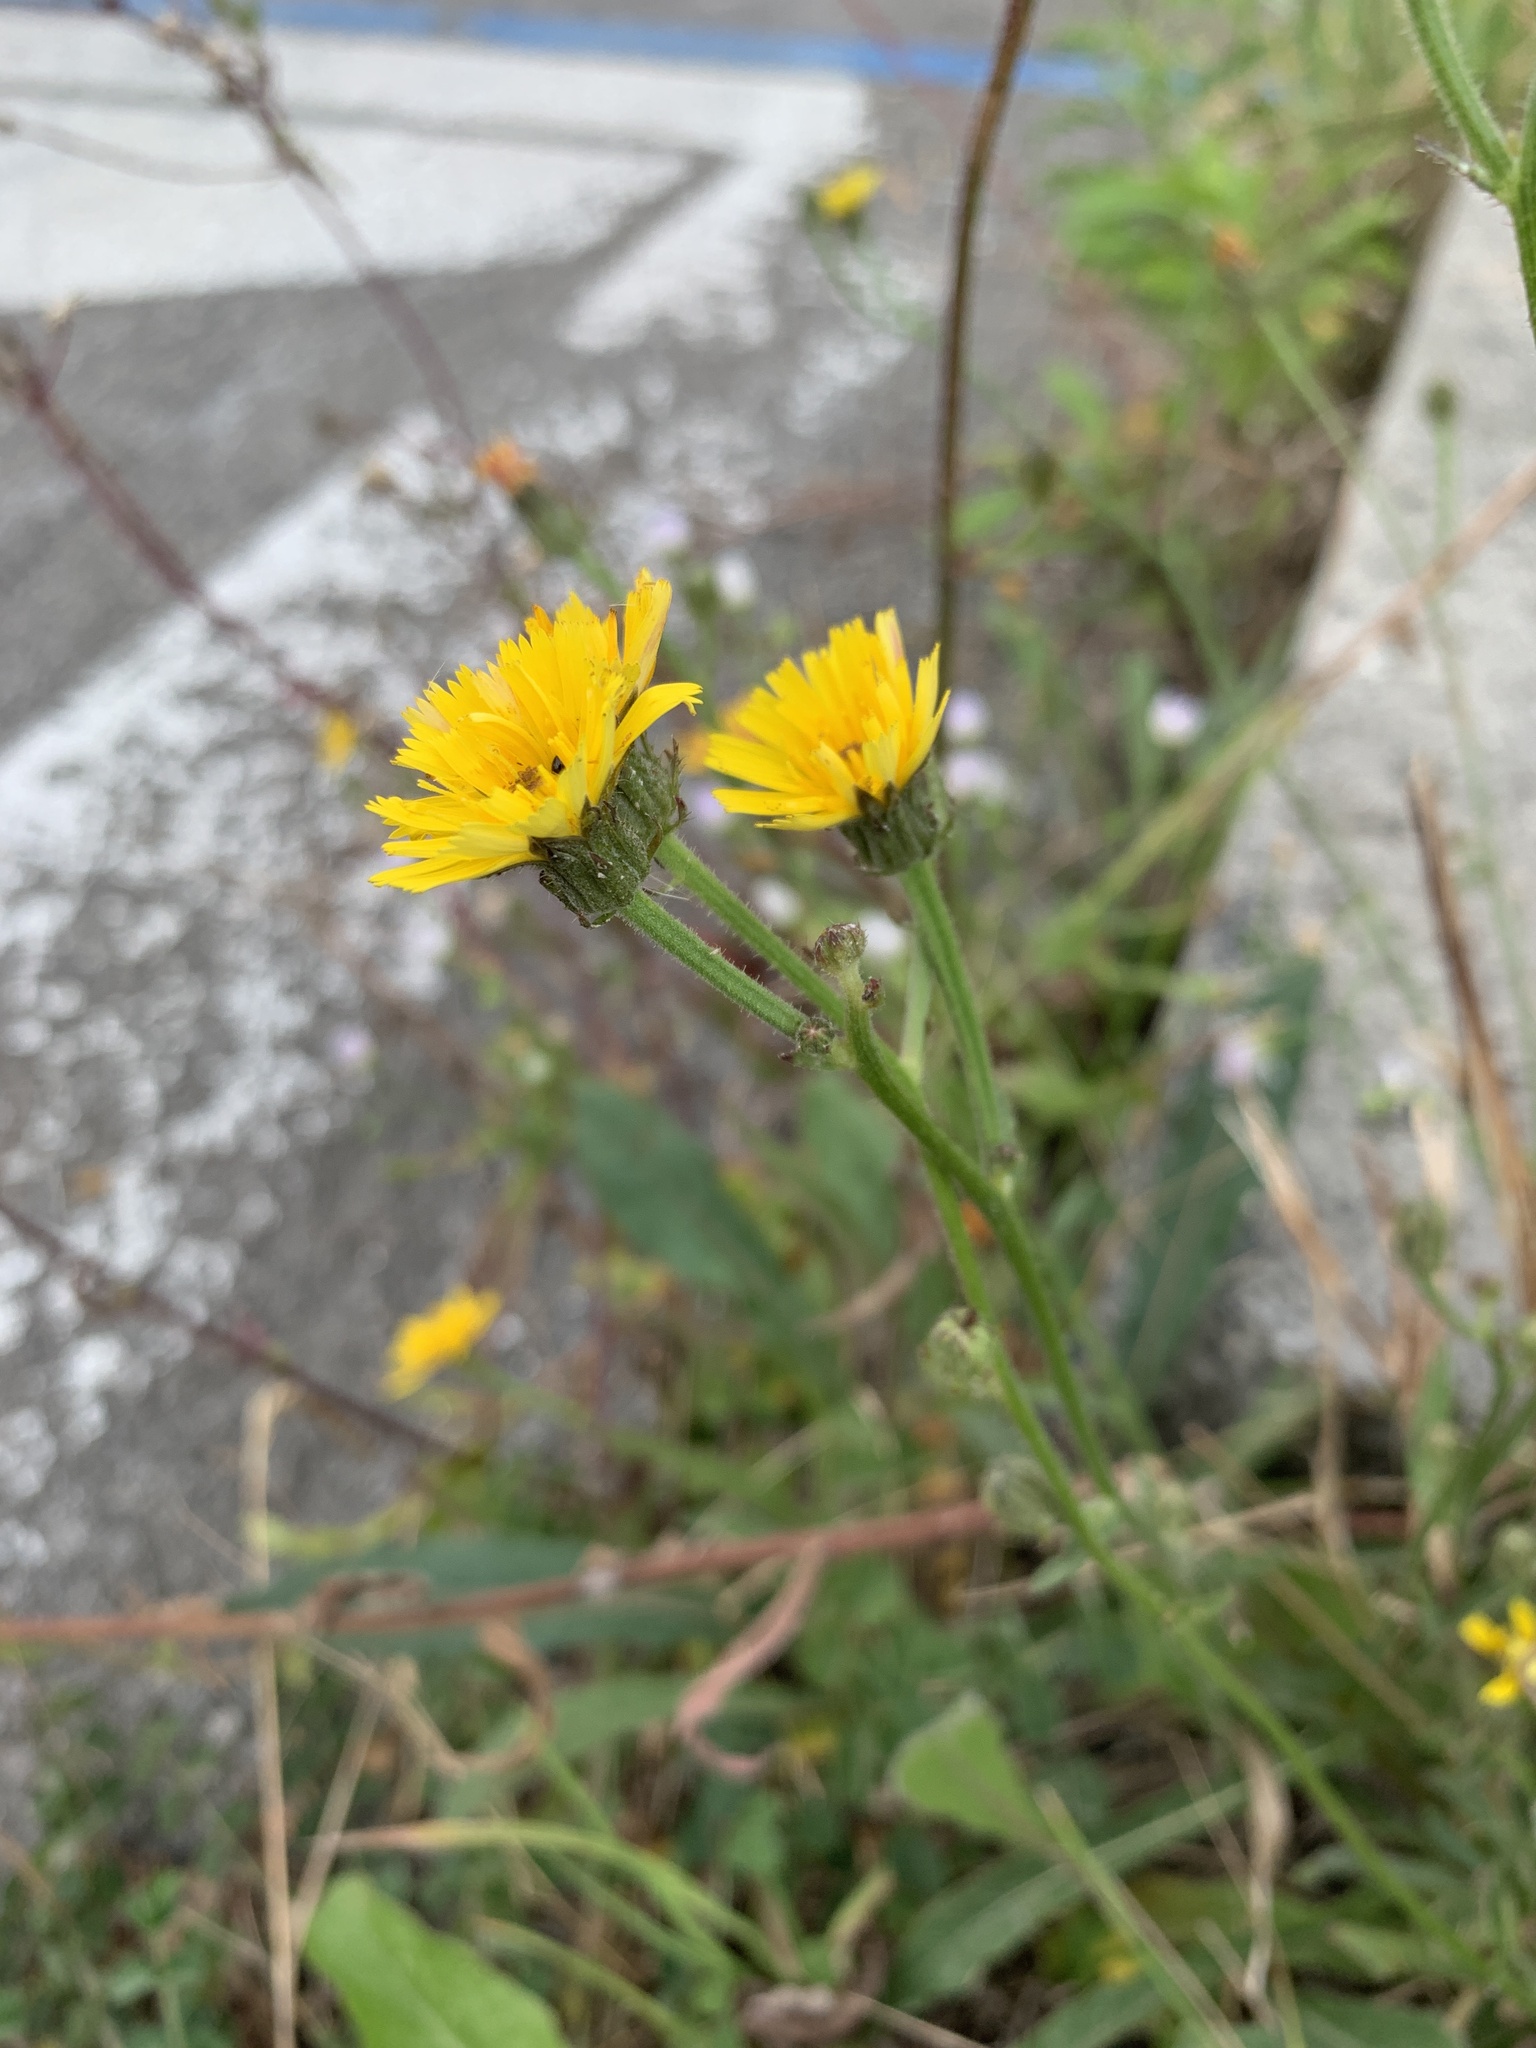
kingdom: Plantae
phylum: Tracheophyta
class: Magnoliopsida
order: Asterales
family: Asteraceae
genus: Picris
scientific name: Picris hieracioides
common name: Hawkweed oxtongue
